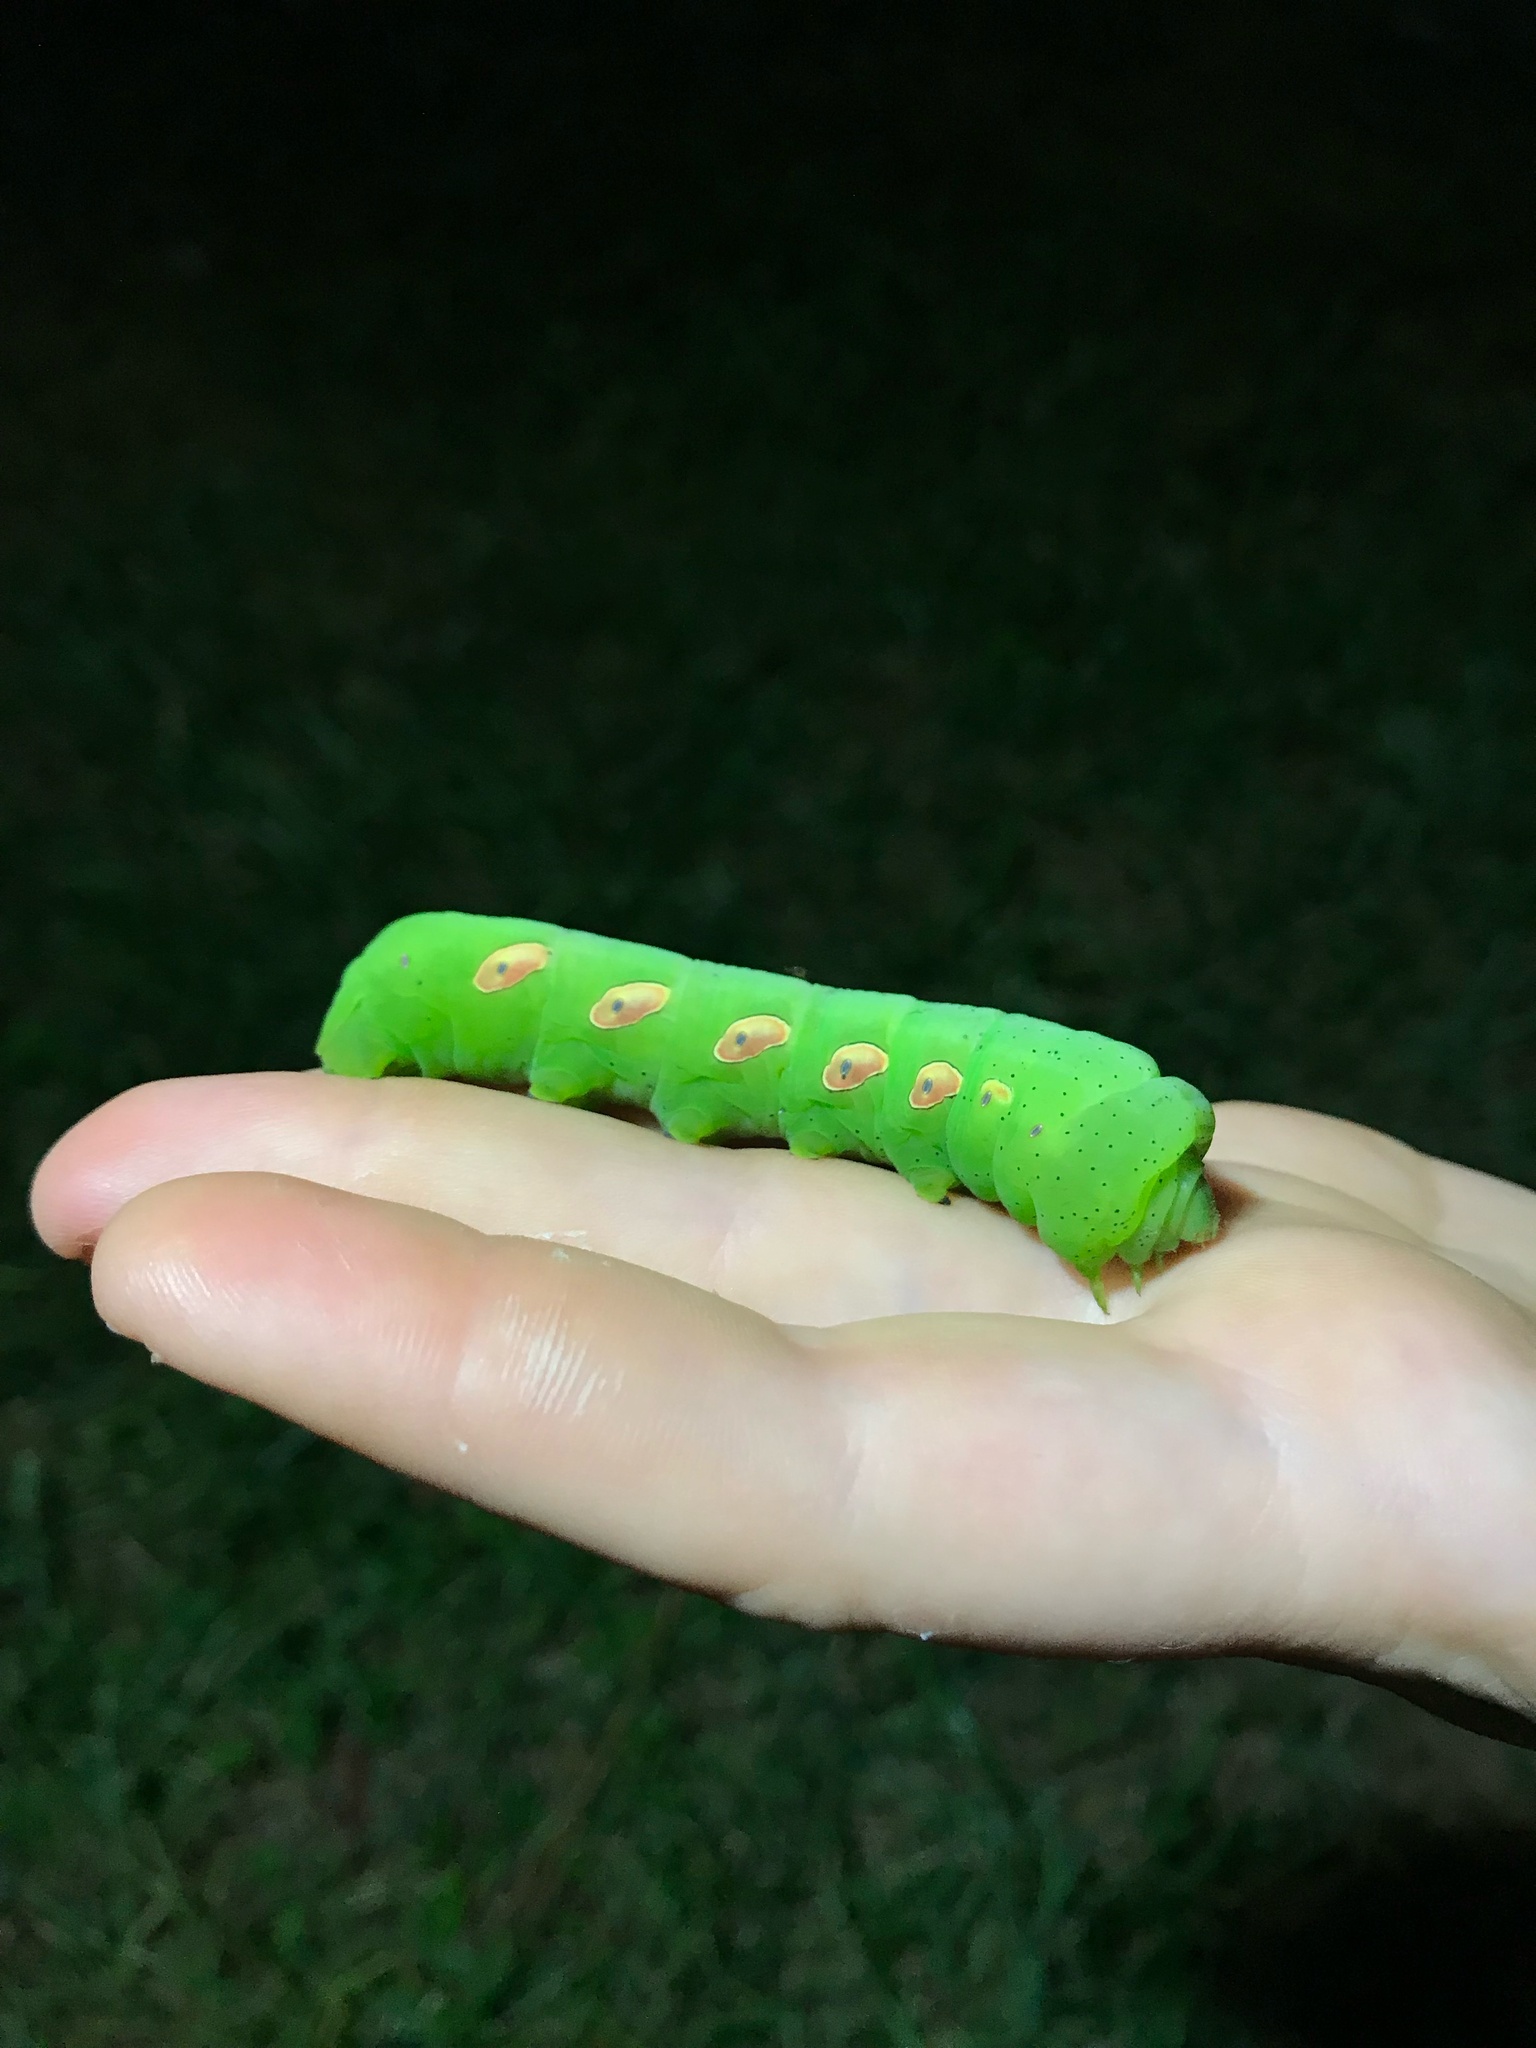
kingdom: Animalia
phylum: Arthropoda
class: Insecta
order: Lepidoptera
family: Sphingidae
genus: Eumorpha
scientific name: Eumorpha pandorus
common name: Pandora sphinx
